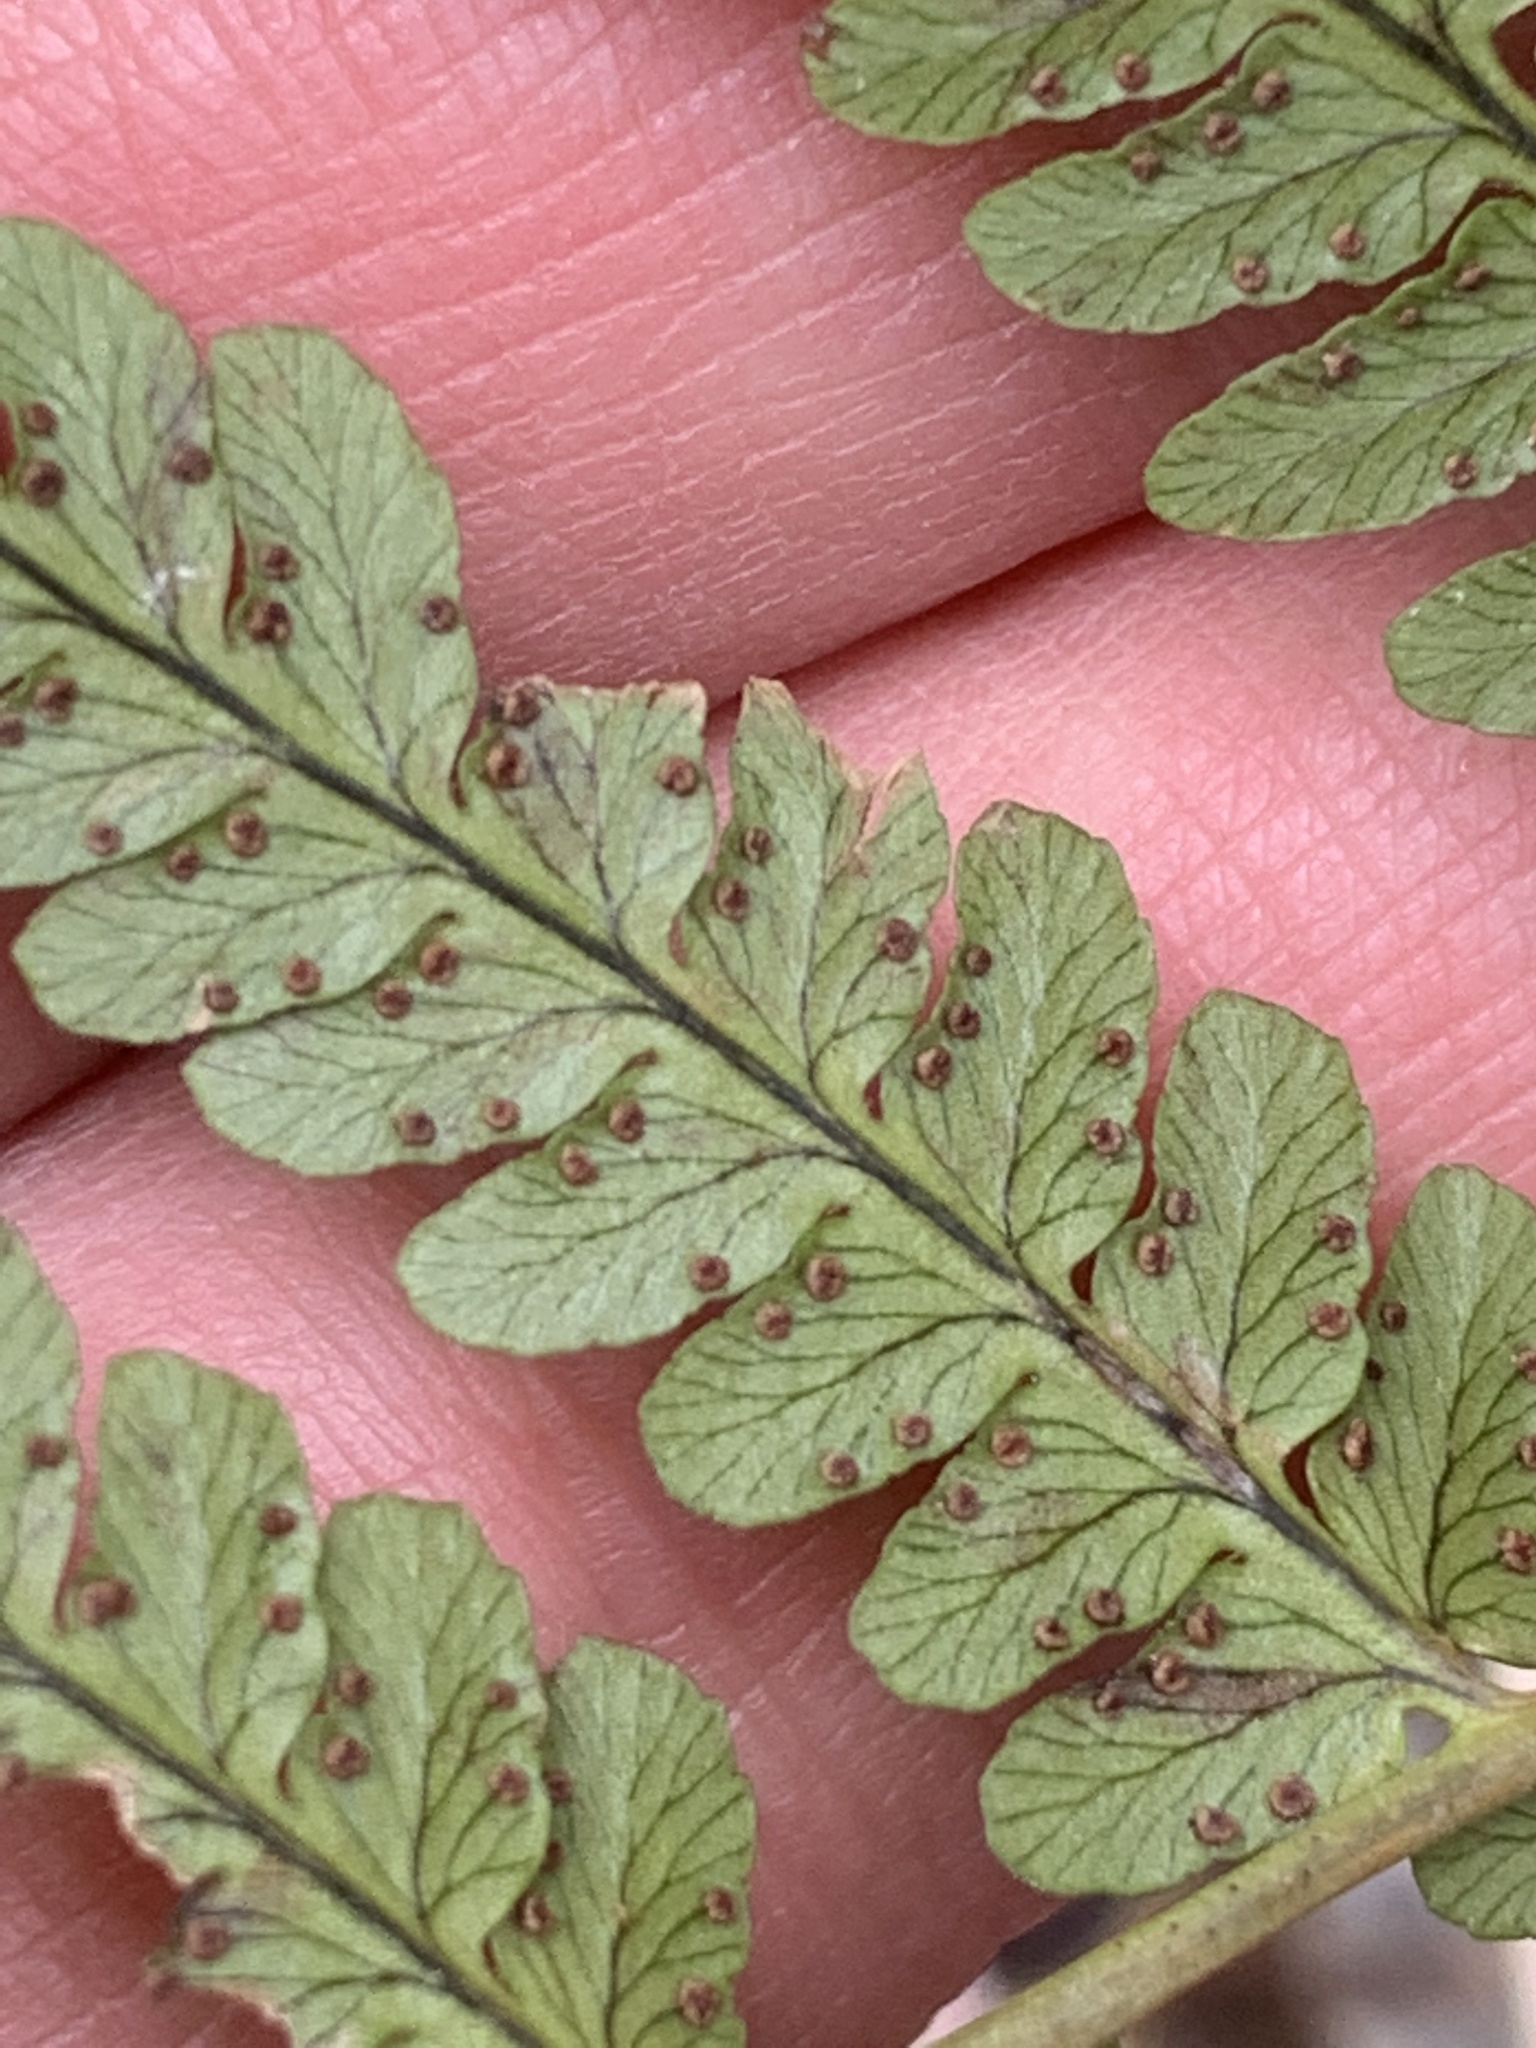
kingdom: Plantae
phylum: Tracheophyta
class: Polypodiopsida
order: Polypodiales
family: Dryopteridaceae
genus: Dryopteris
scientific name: Dryopteris marginalis
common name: Marginal wood fern
